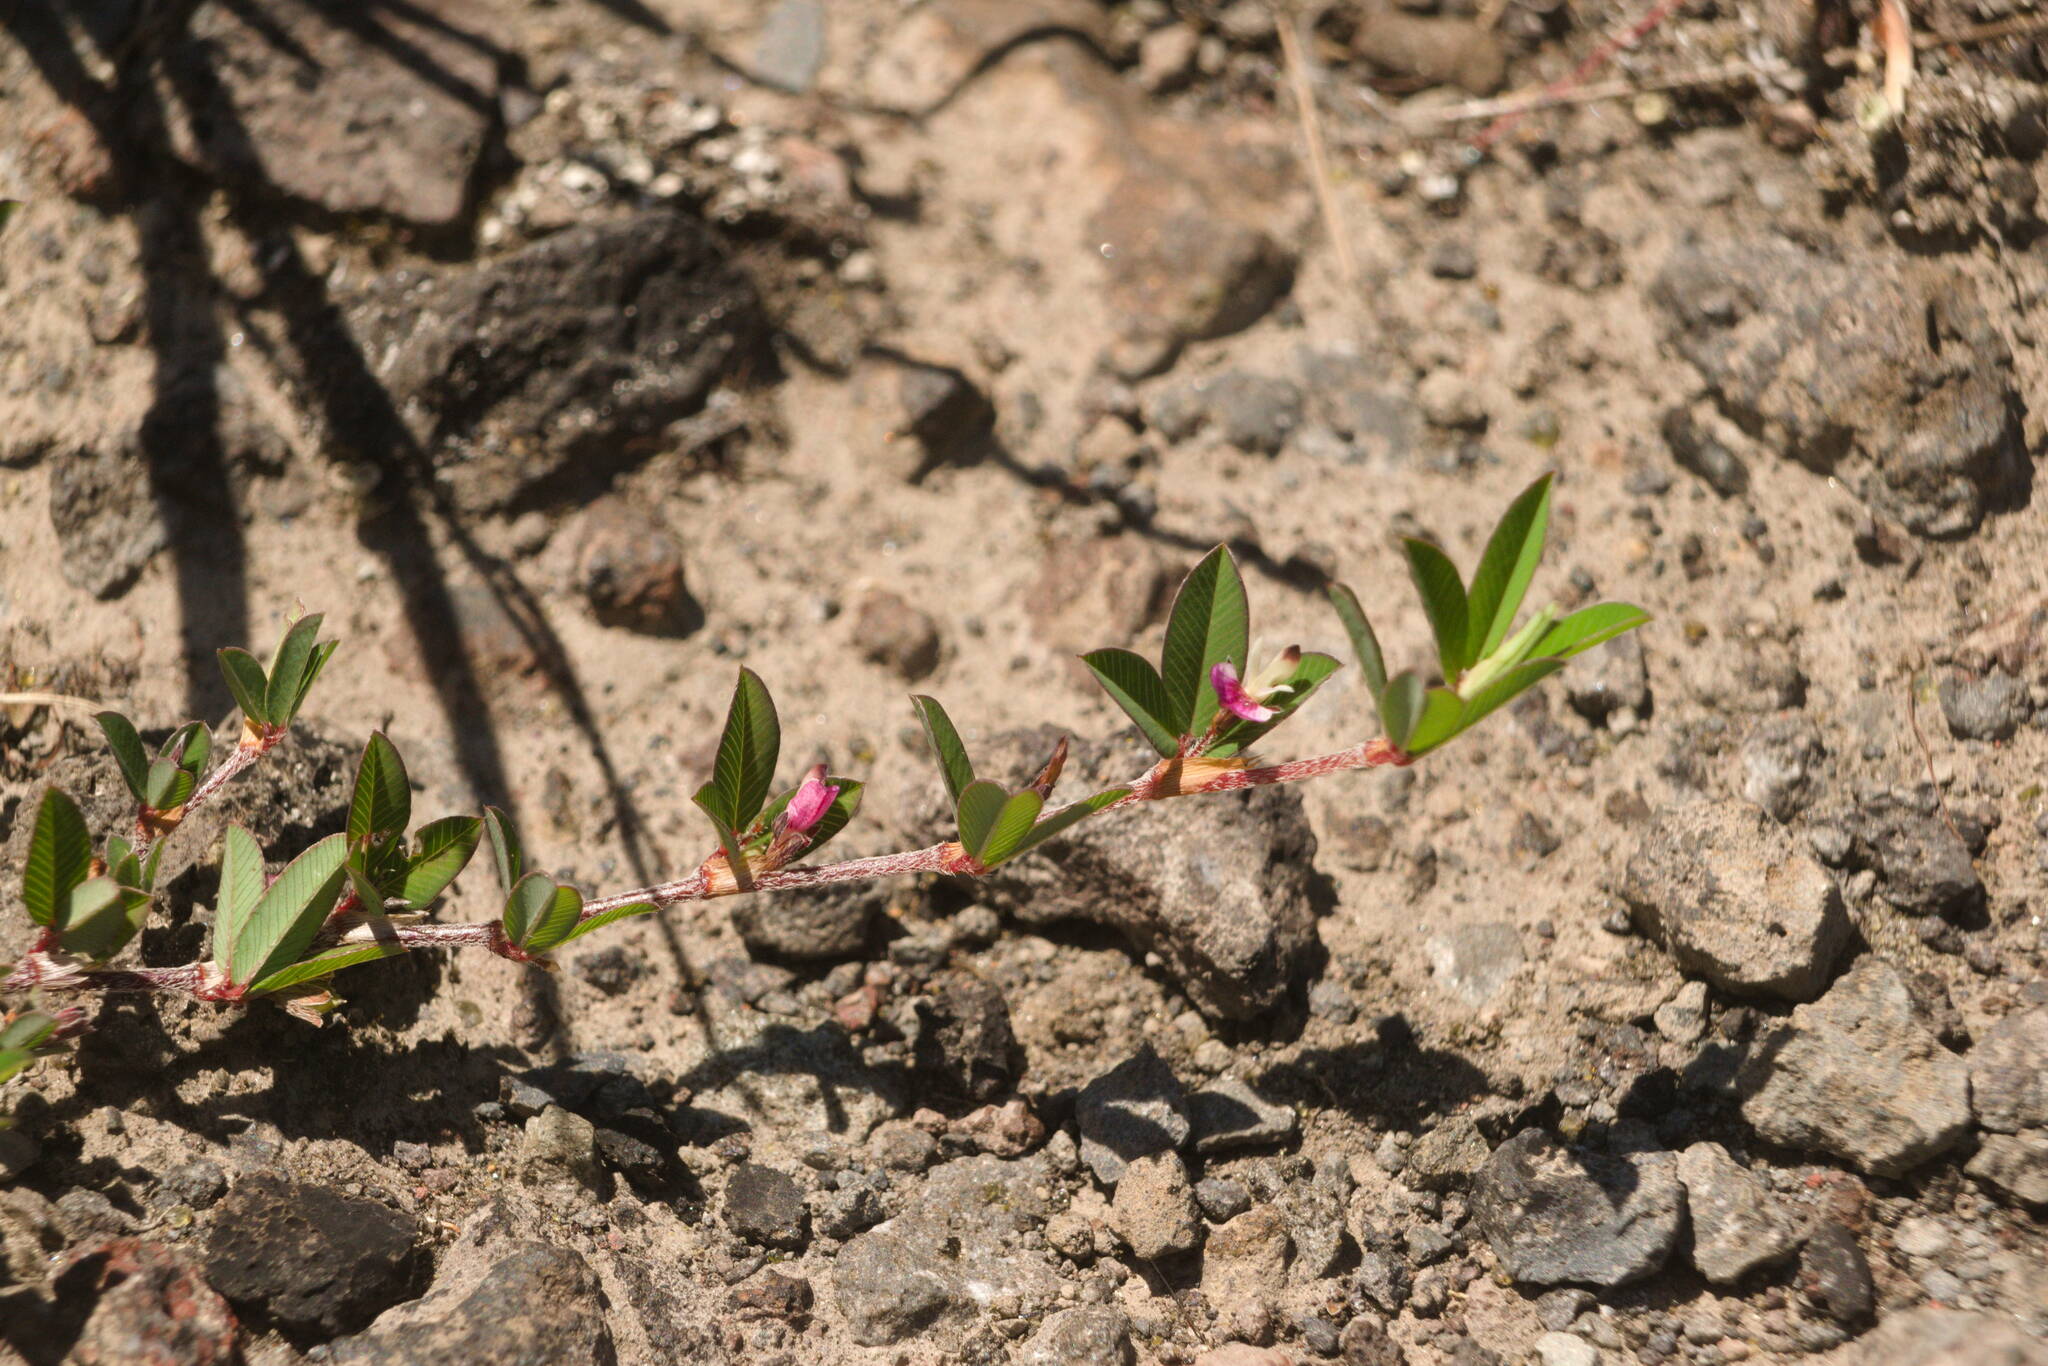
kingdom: Plantae
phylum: Tracheophyta
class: Magnoliopsida
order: Fabales
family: Fabaceae
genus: Kummerowia
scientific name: Kummerowia striata
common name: Japanese clover
